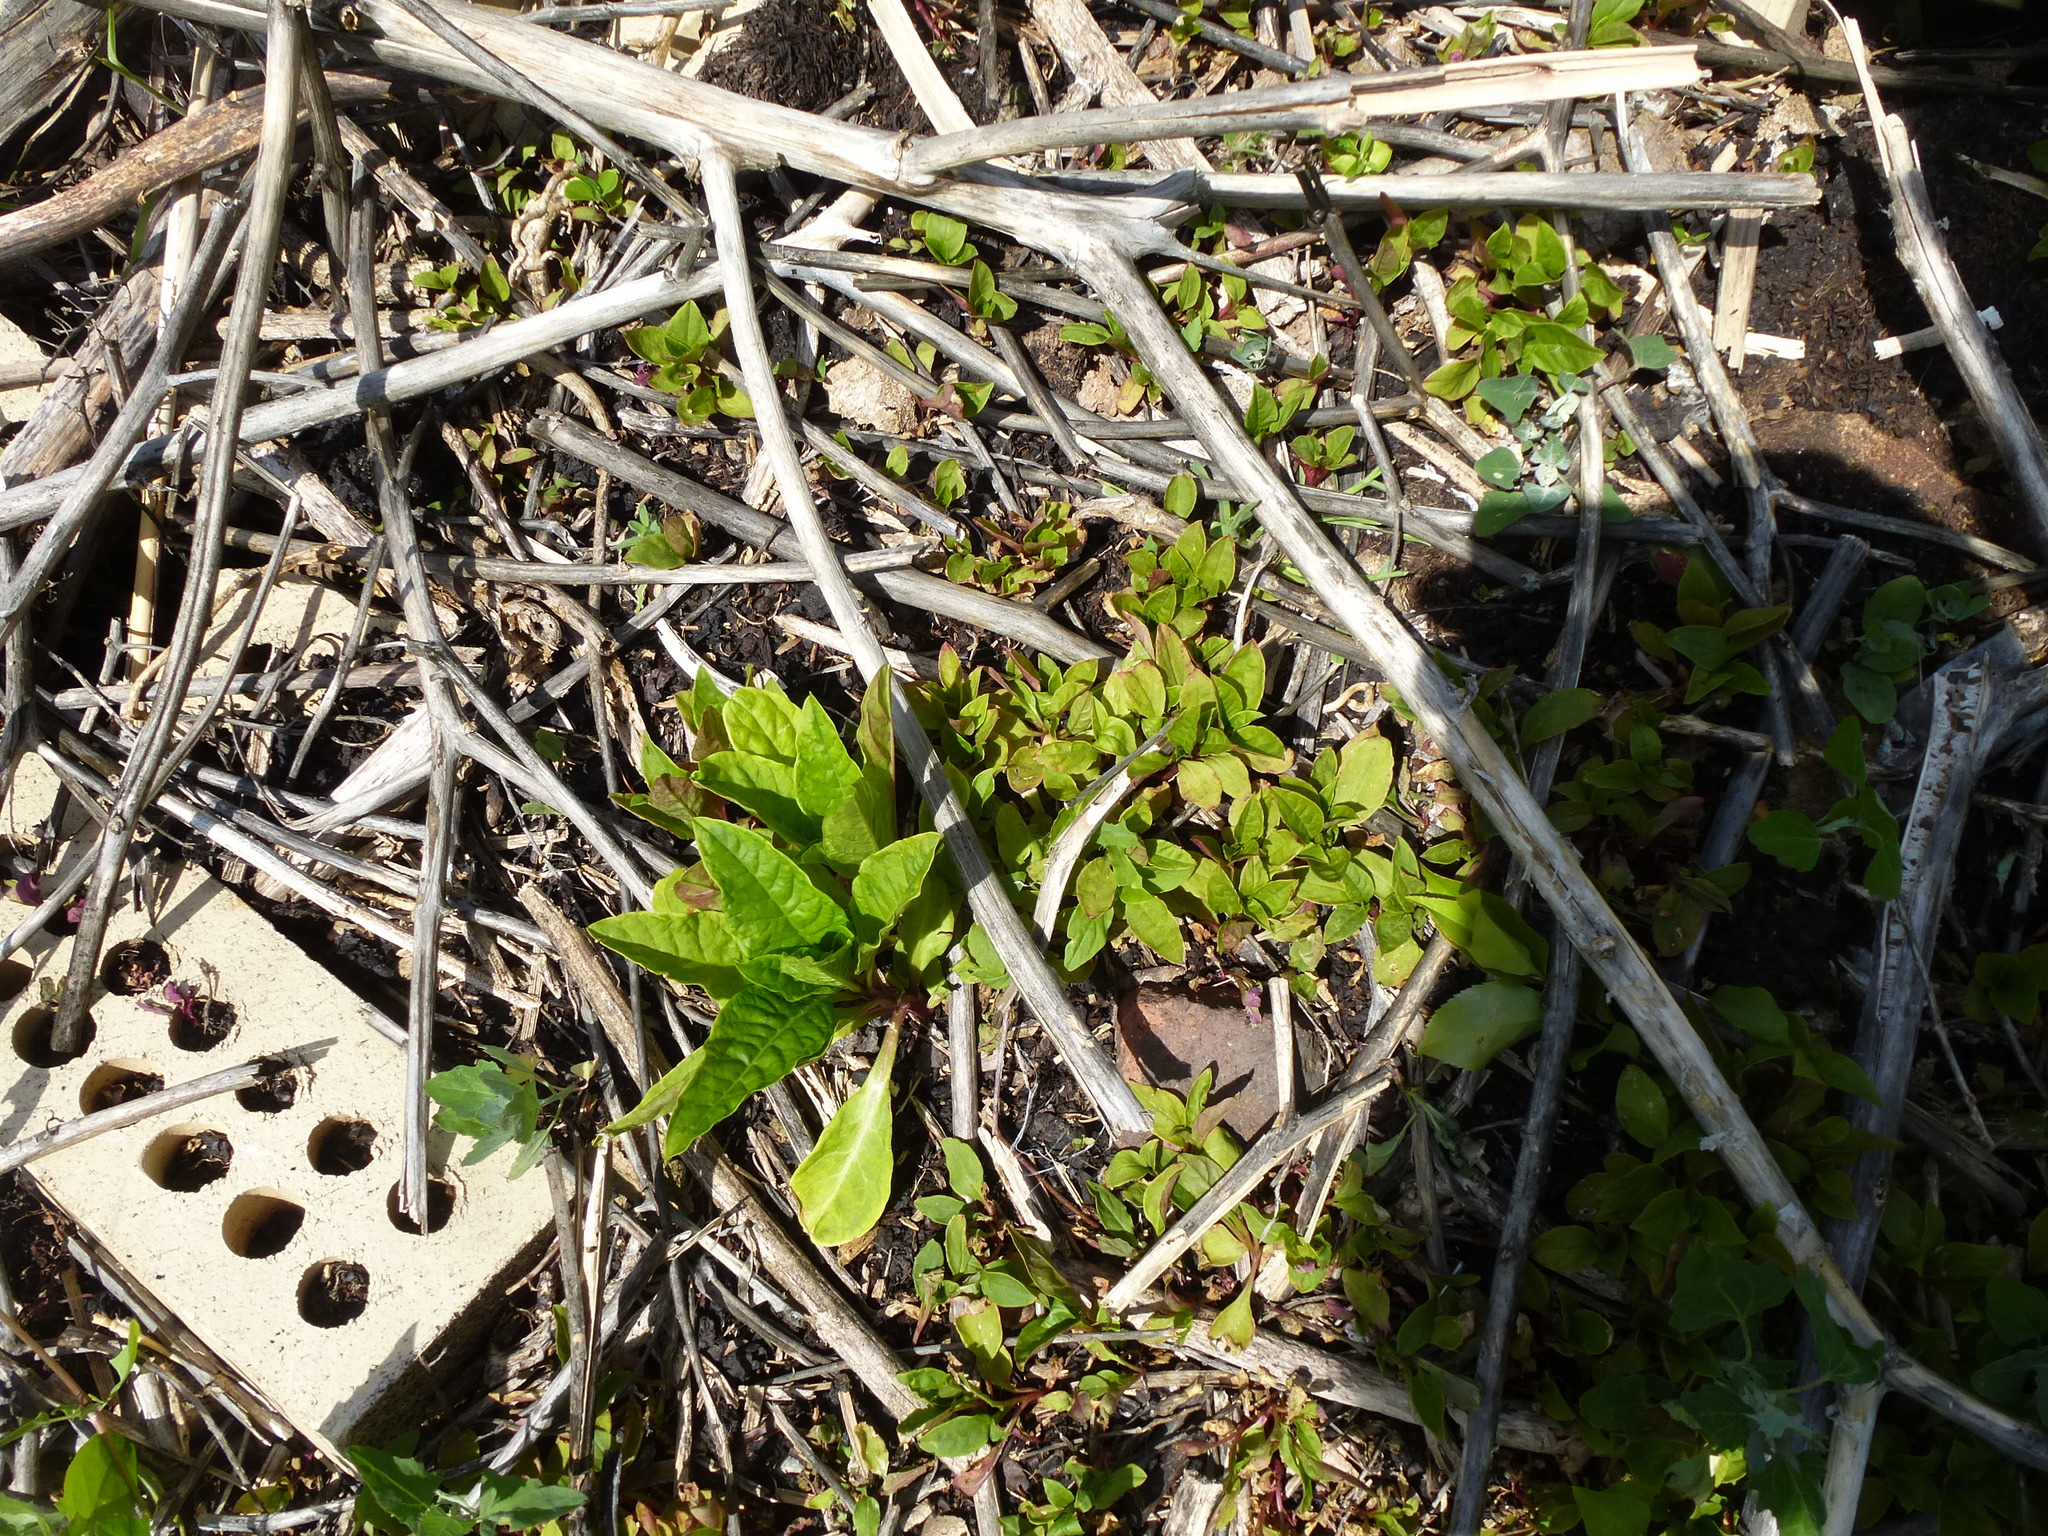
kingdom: Plantae
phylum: Tracheophyta
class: Magnoliopsida
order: Caryophyllales
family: Phytolaccaceae
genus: Phytolacca
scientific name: Phytolacca americana
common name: American pokeweed
